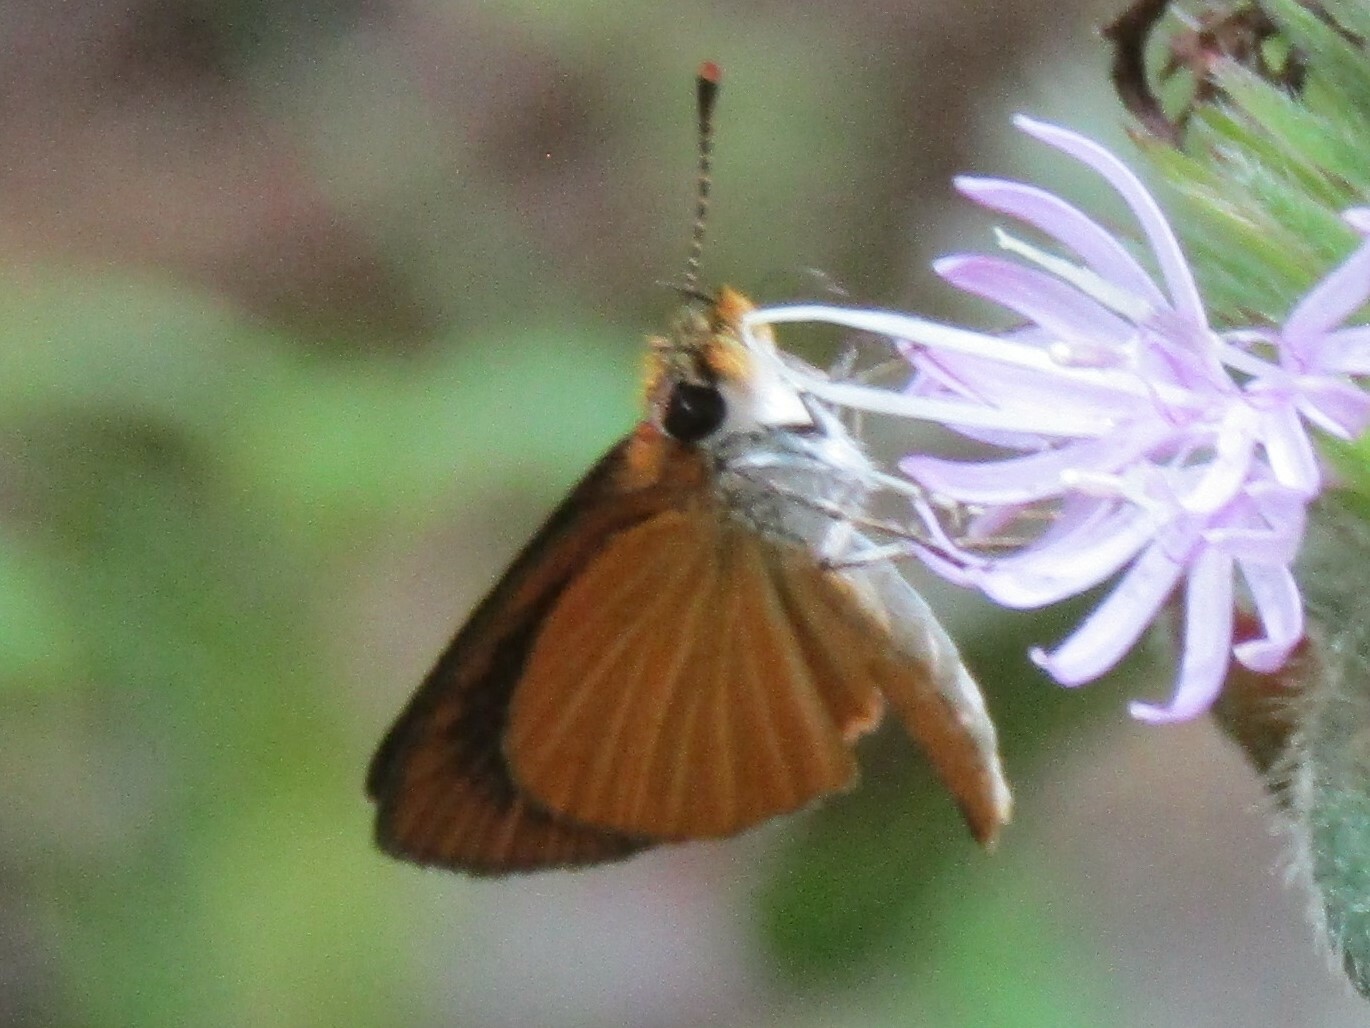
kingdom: Animalia
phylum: Arthropoda
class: Insecta
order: Lepidoptera
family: Hesperiidae
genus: Ancyloxypha
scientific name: Ancyloxypha numitor
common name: Least skipper
